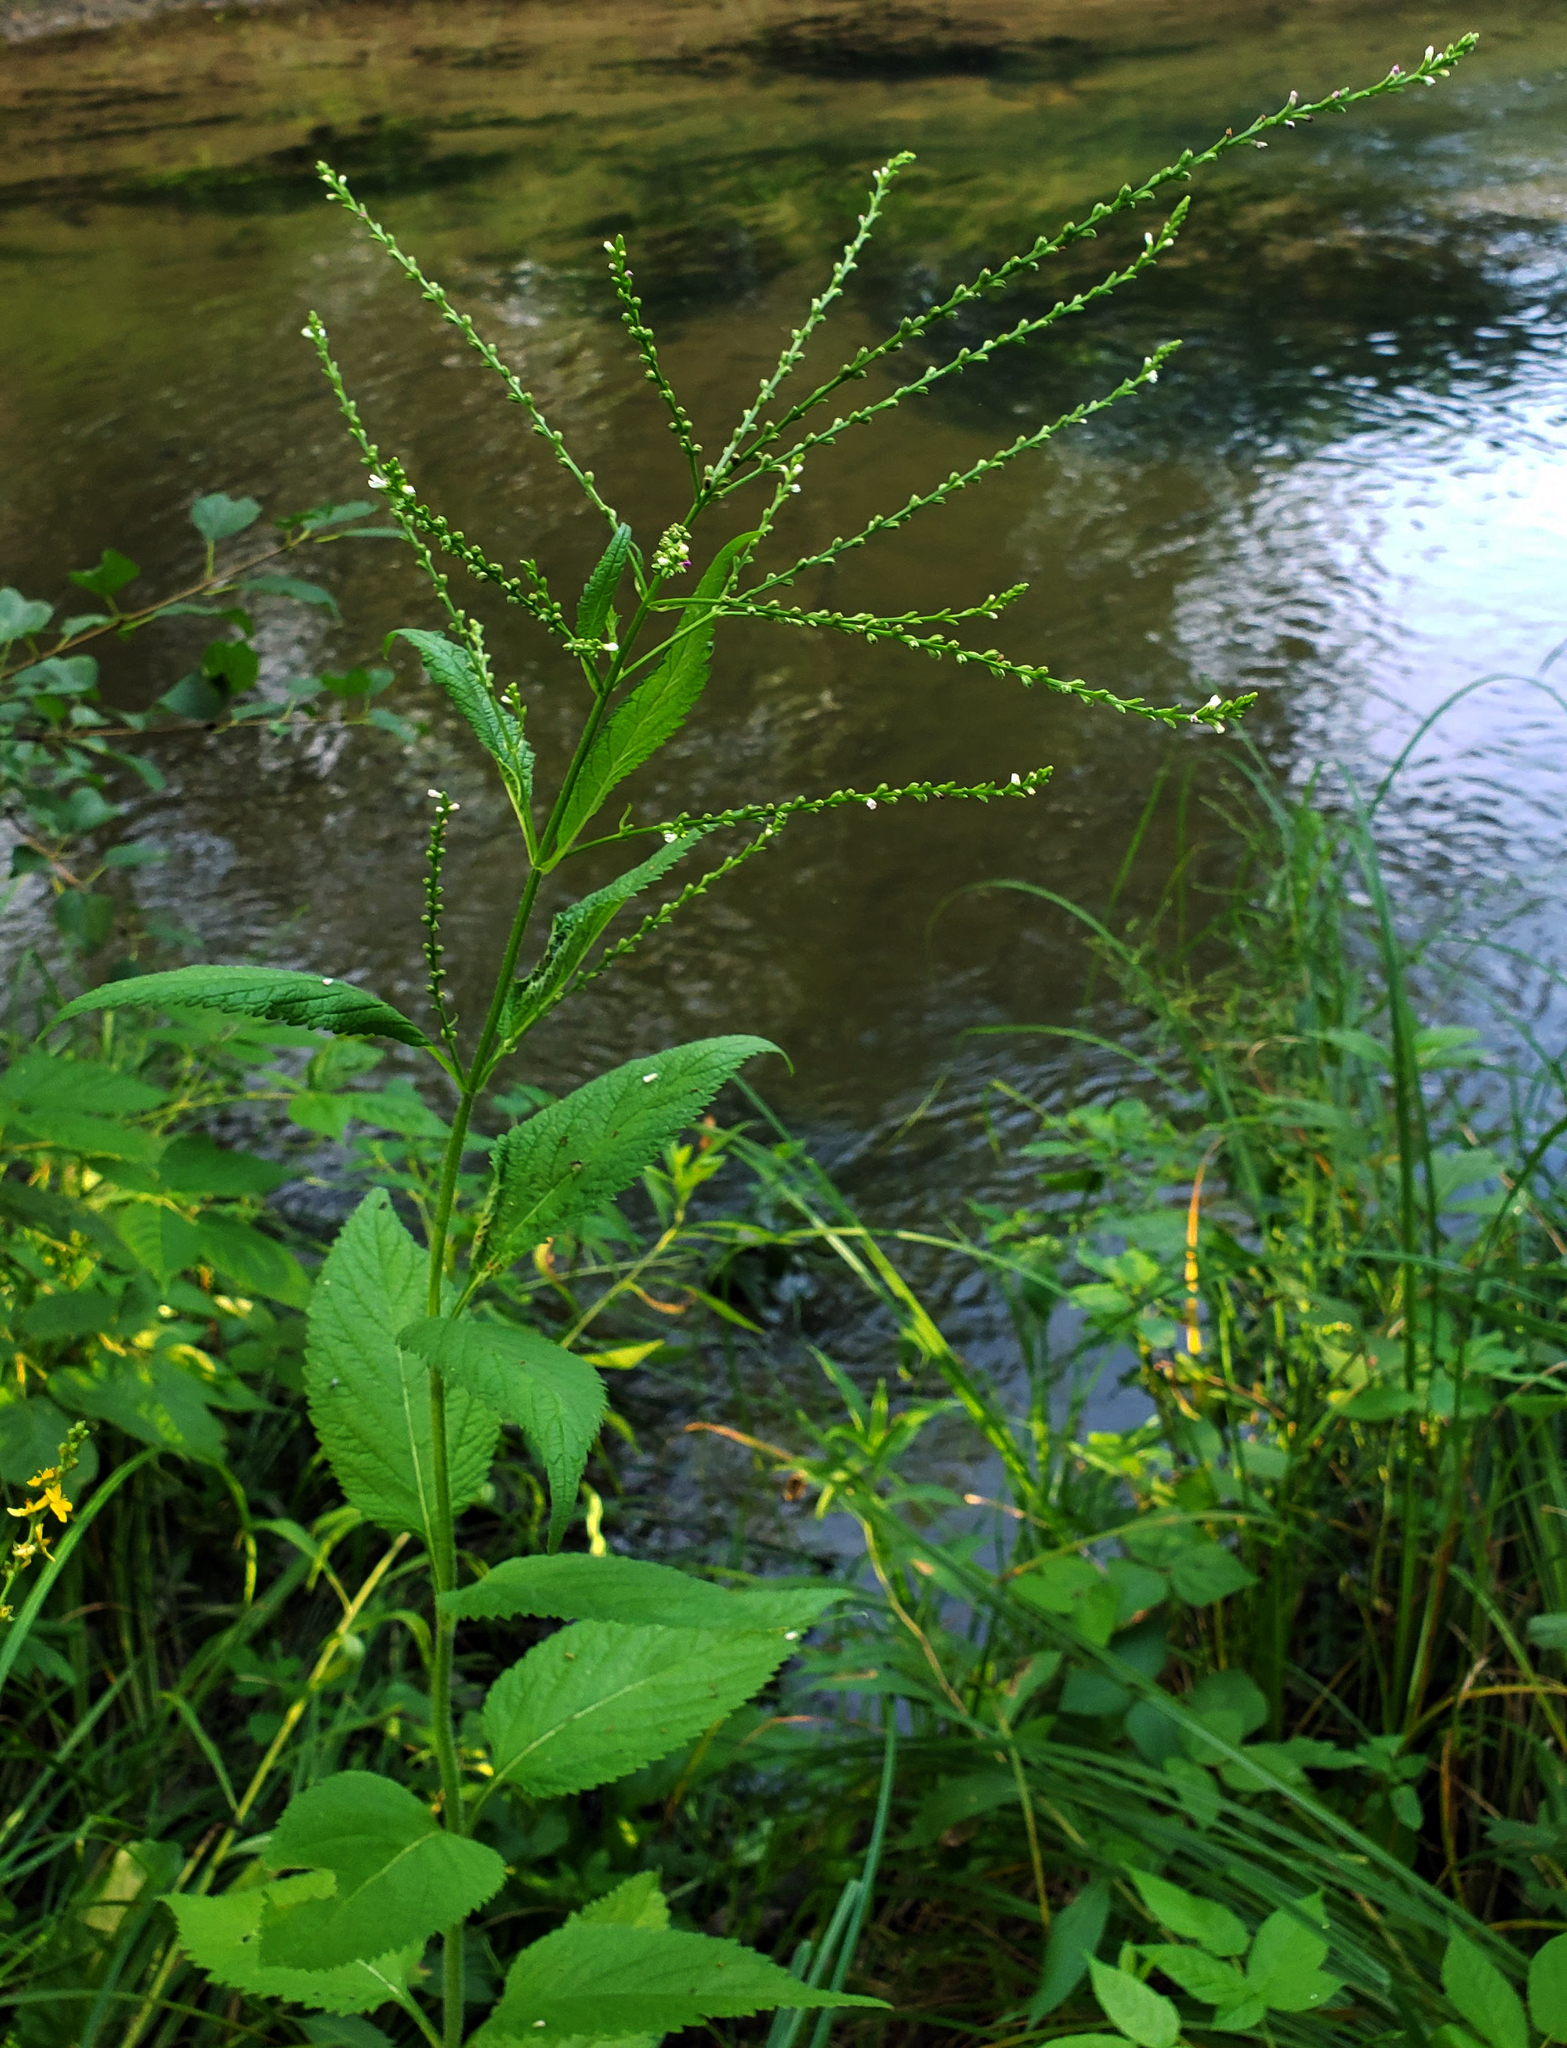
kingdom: Plantae
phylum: Tracheophyta
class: Magnoliopsida
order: Lamiales
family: Verbenaceae
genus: Verbena
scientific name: Verbena urticifolia
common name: Nettle-leaved vervain
